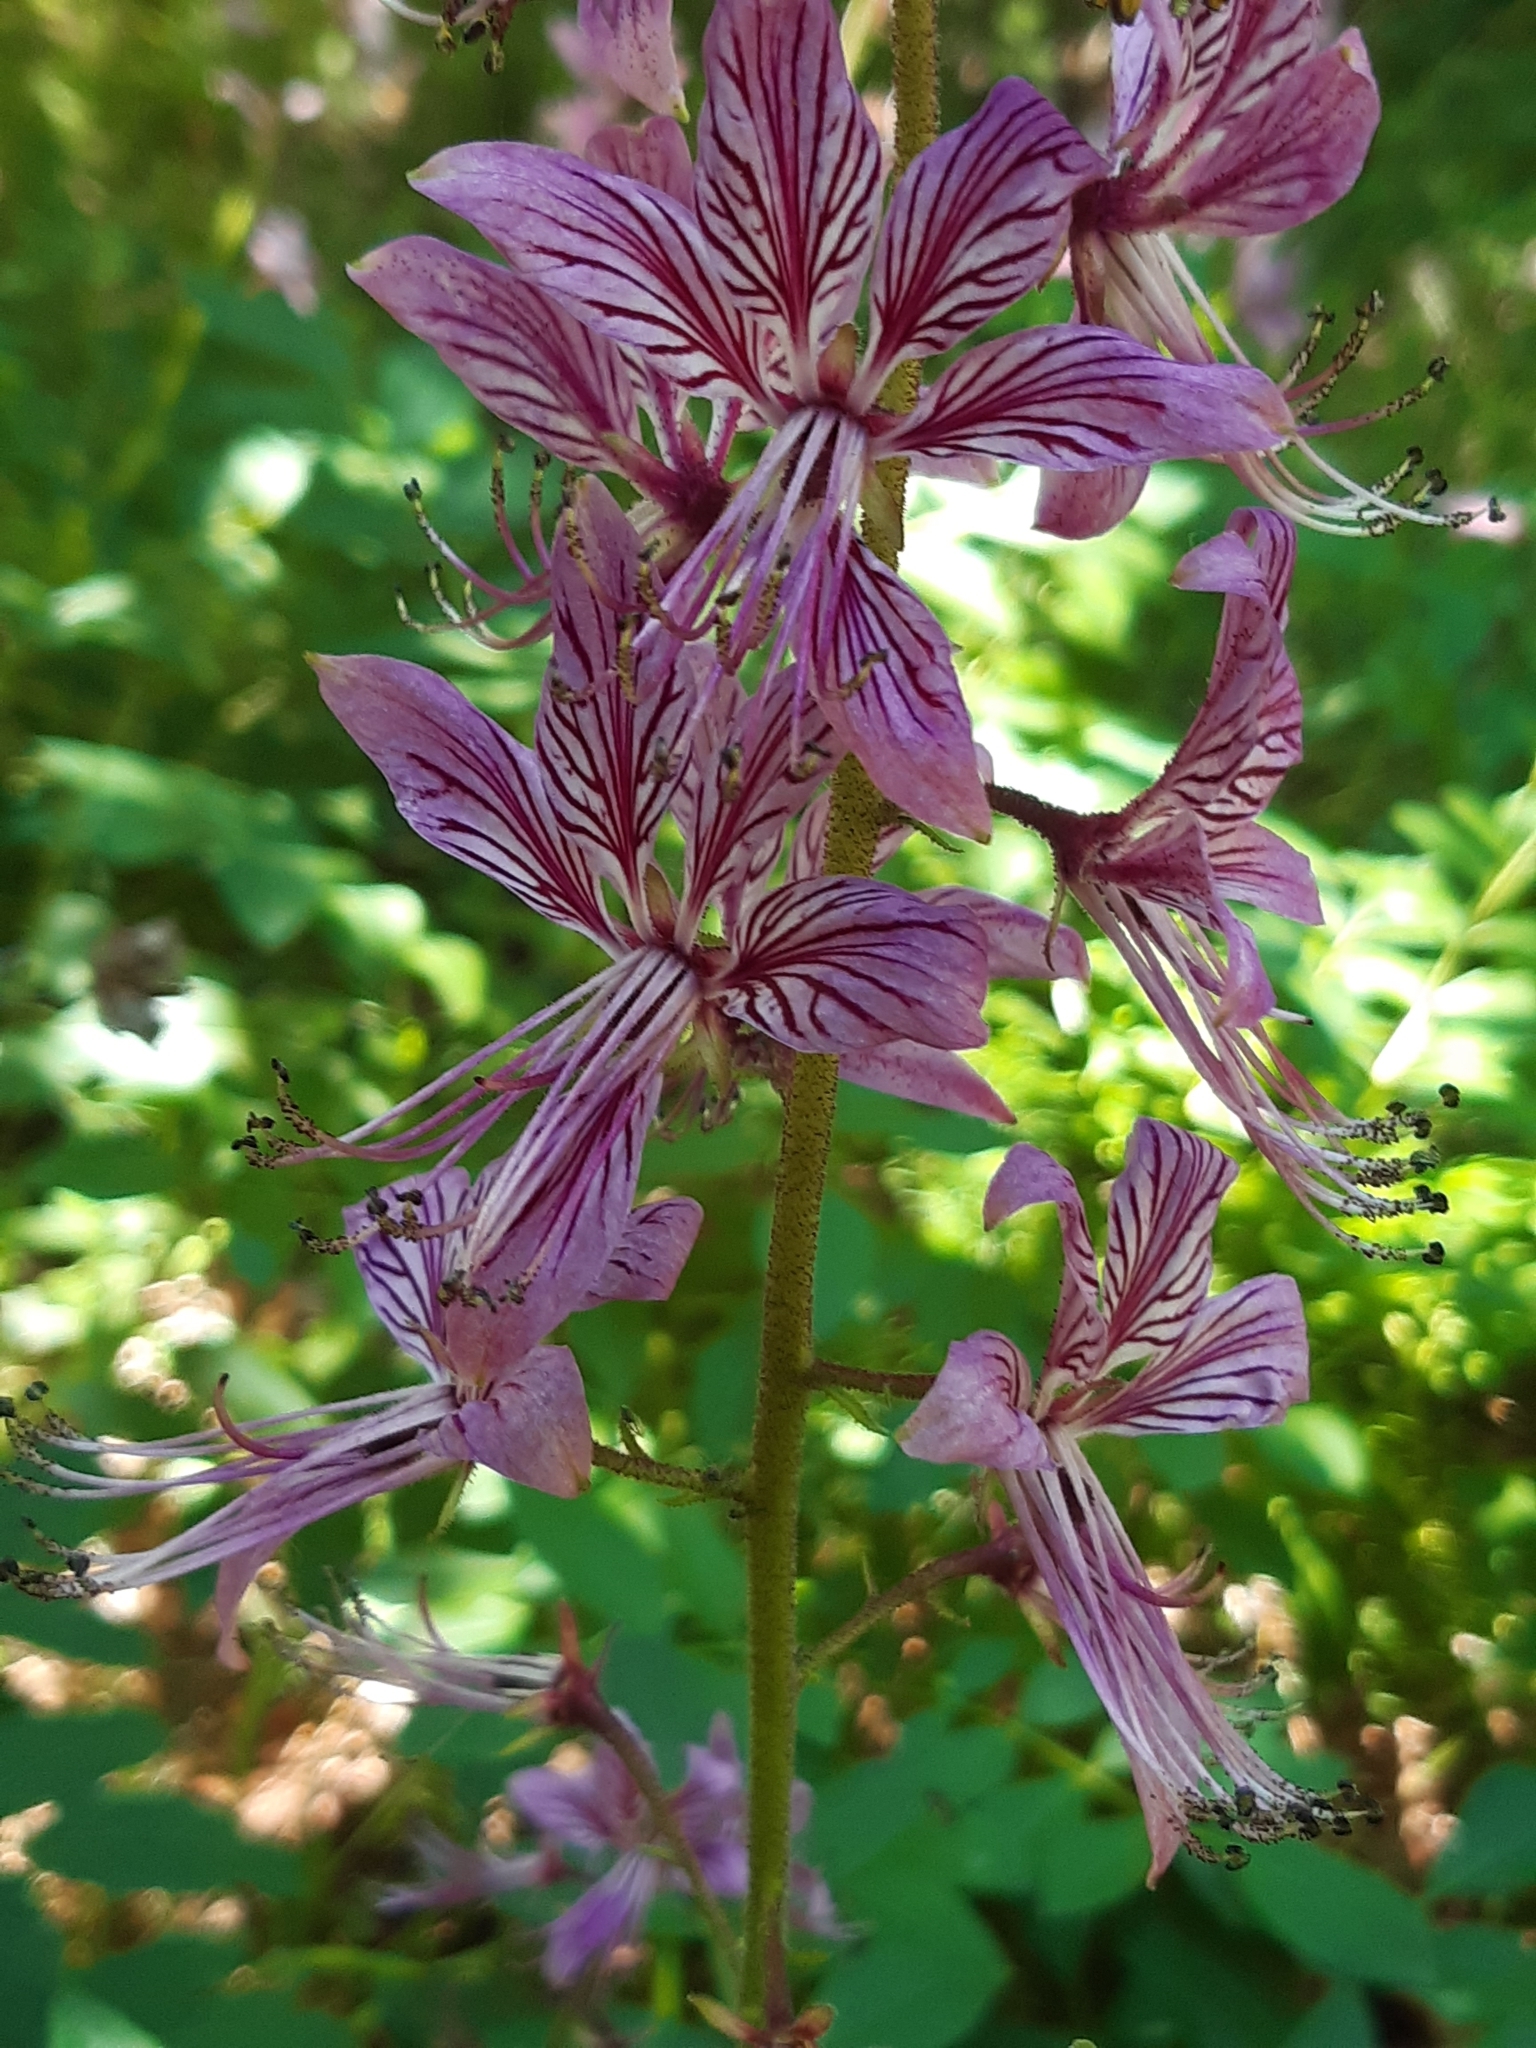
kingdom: Plantae
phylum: Tracheophyta
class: Magnoliopsida
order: Sapindales
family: Rutaceae
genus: Dictamnus
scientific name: Dictamnus albus
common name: Gasplant
